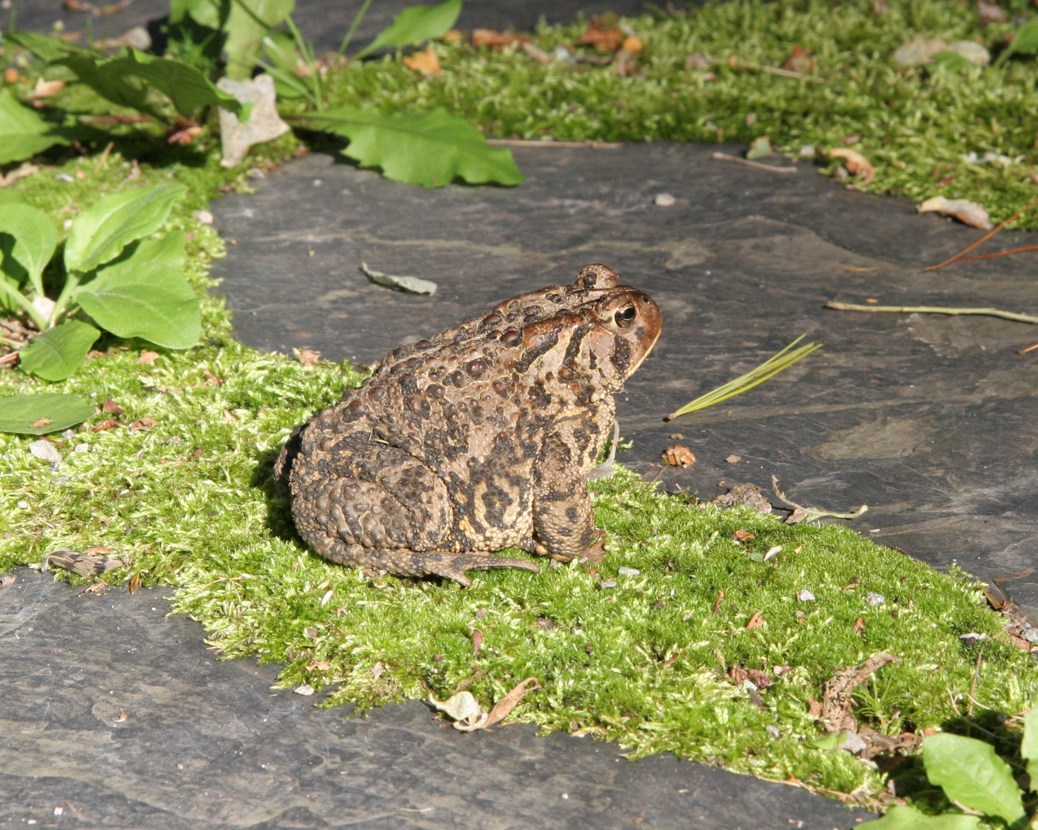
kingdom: Animalia
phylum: Chordata
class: Amphibia
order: Anura
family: Bufonidae
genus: Anaxyrus
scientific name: Anaxyrus americanus
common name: American toad
